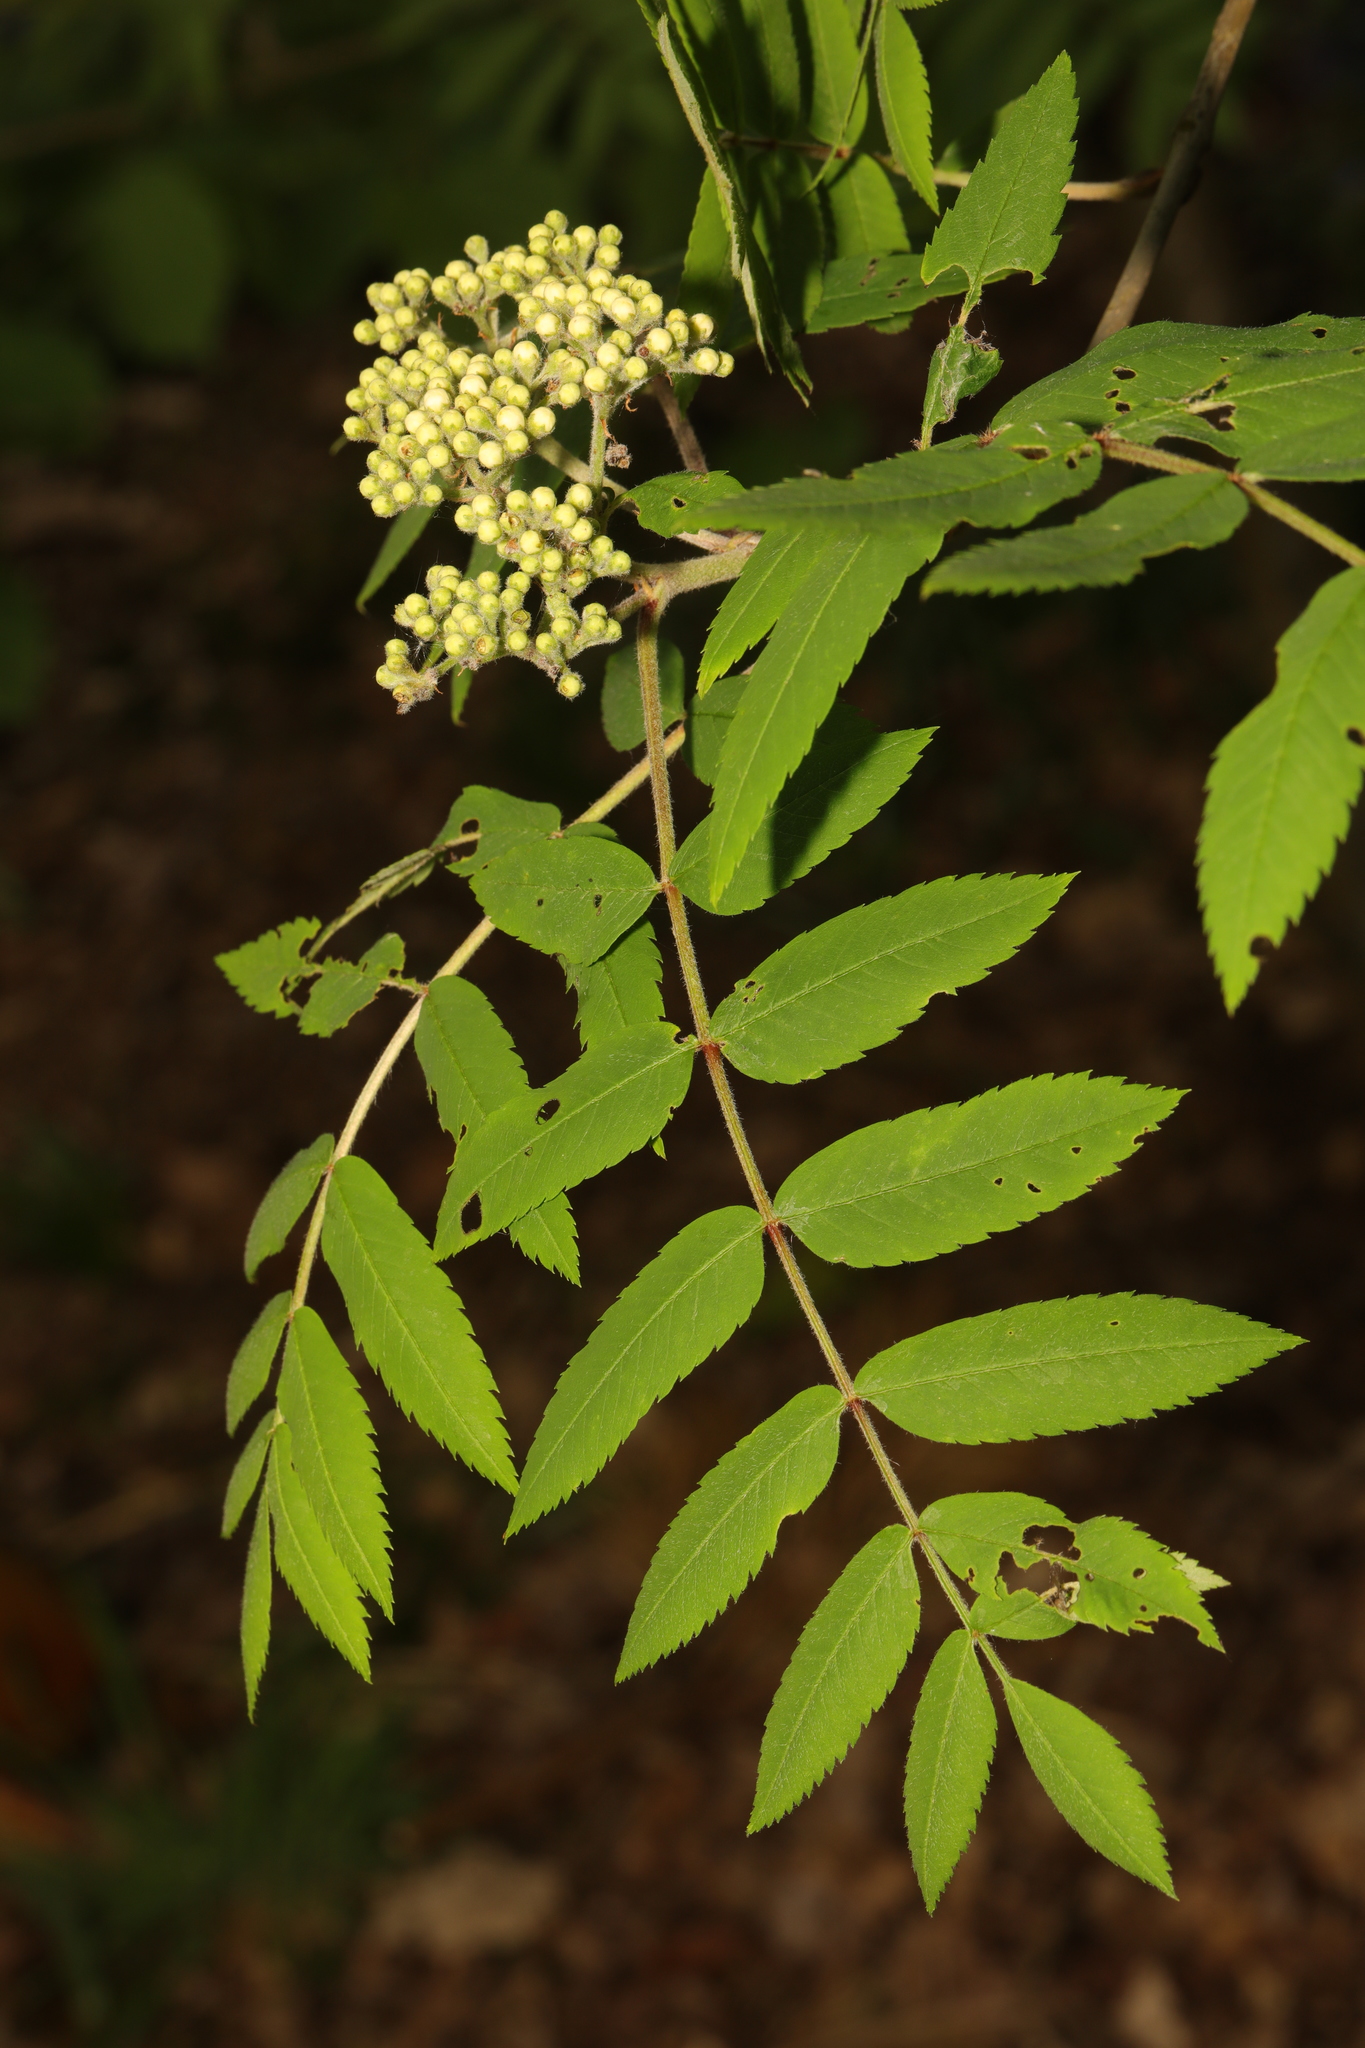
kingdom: Plantae
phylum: Tracheophyta
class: Magnoliopsida
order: Rosales
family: Rosaceae
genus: Sorbus
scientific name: Sorbus aucuparia
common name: Rowan
